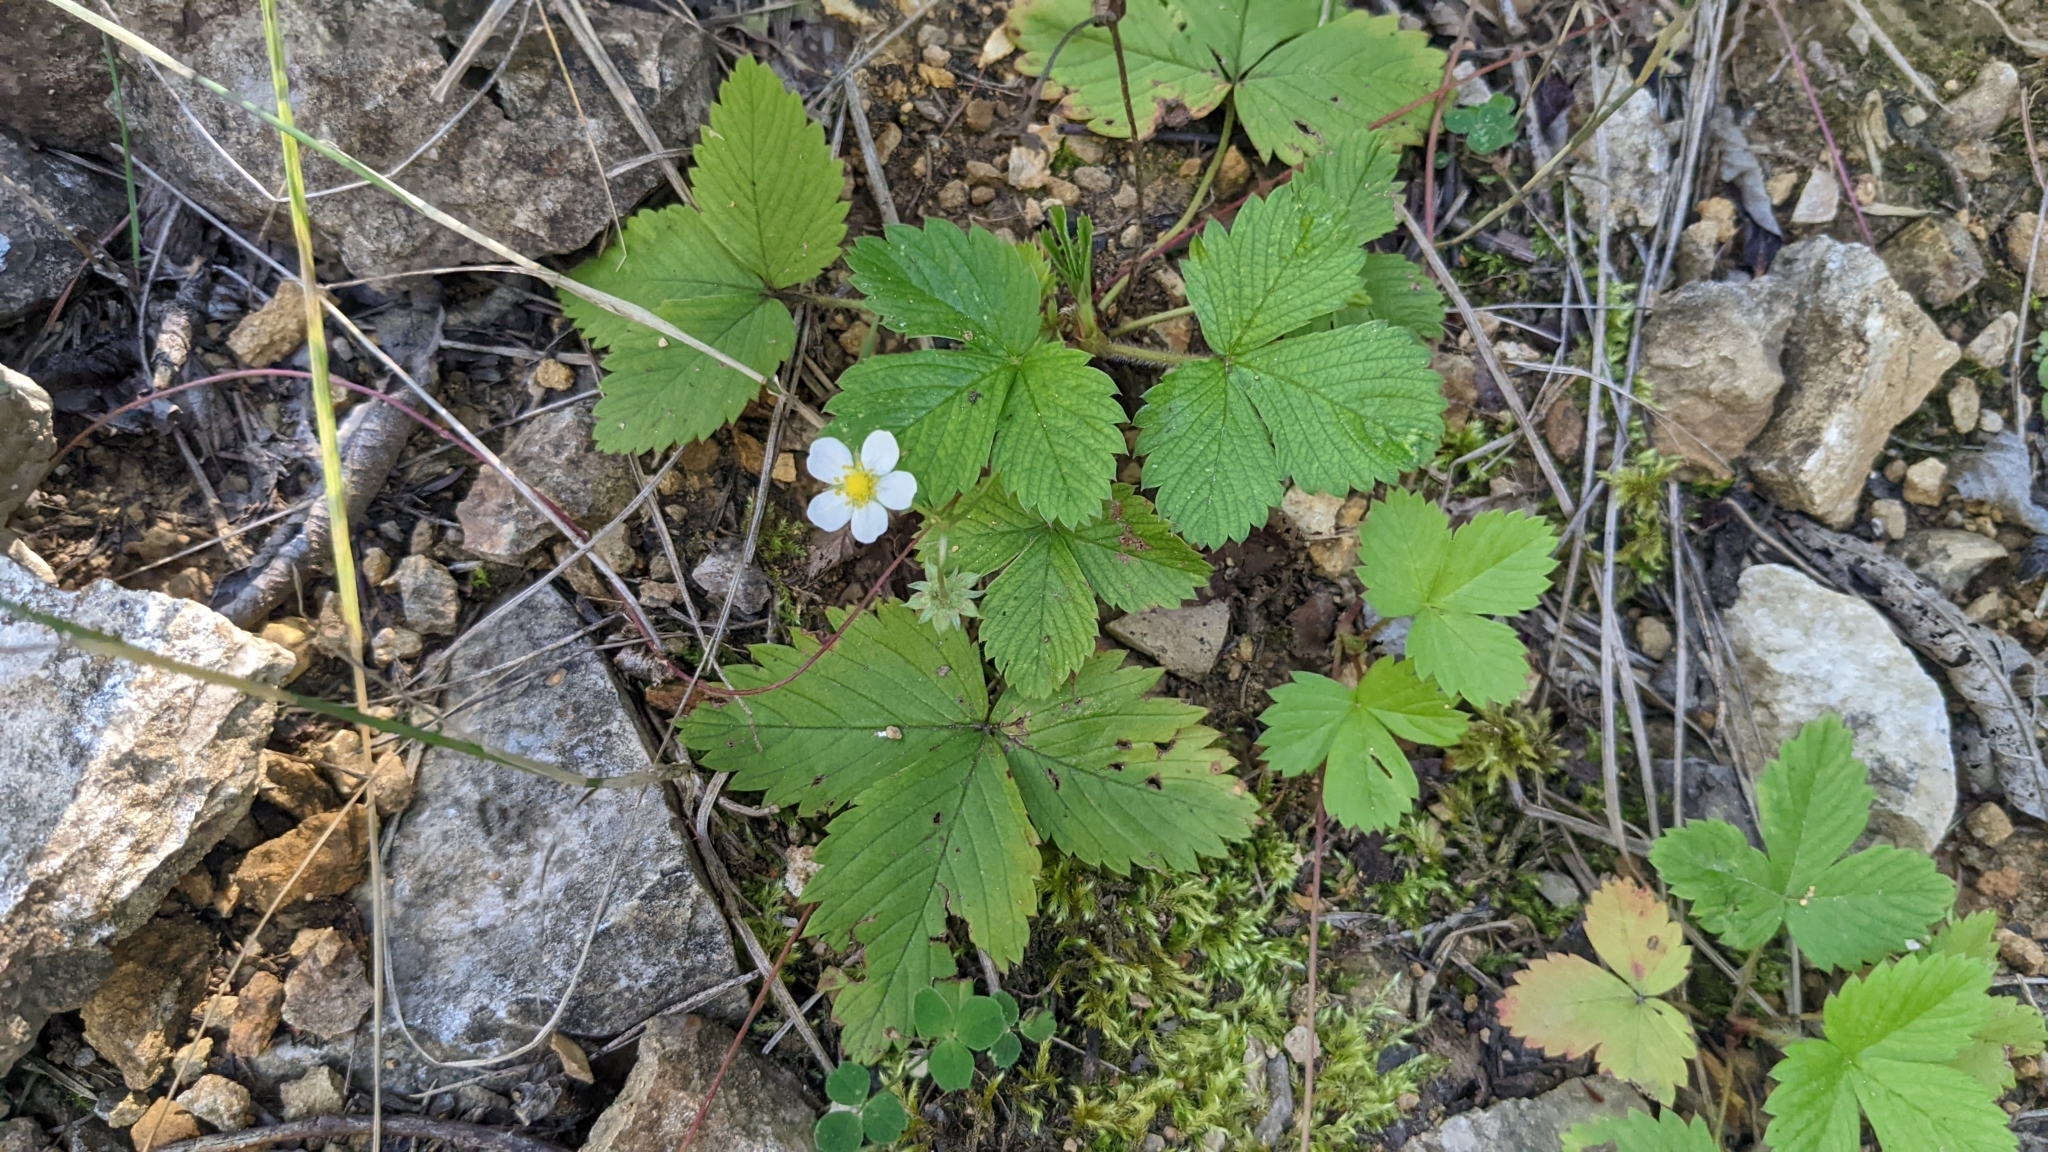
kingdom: Plantae
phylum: Tracheophyta
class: Magnoliopsida
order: Rosales
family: Rosaceae
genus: Fragaria
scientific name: Fragaria vesca
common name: Wild strawberry
